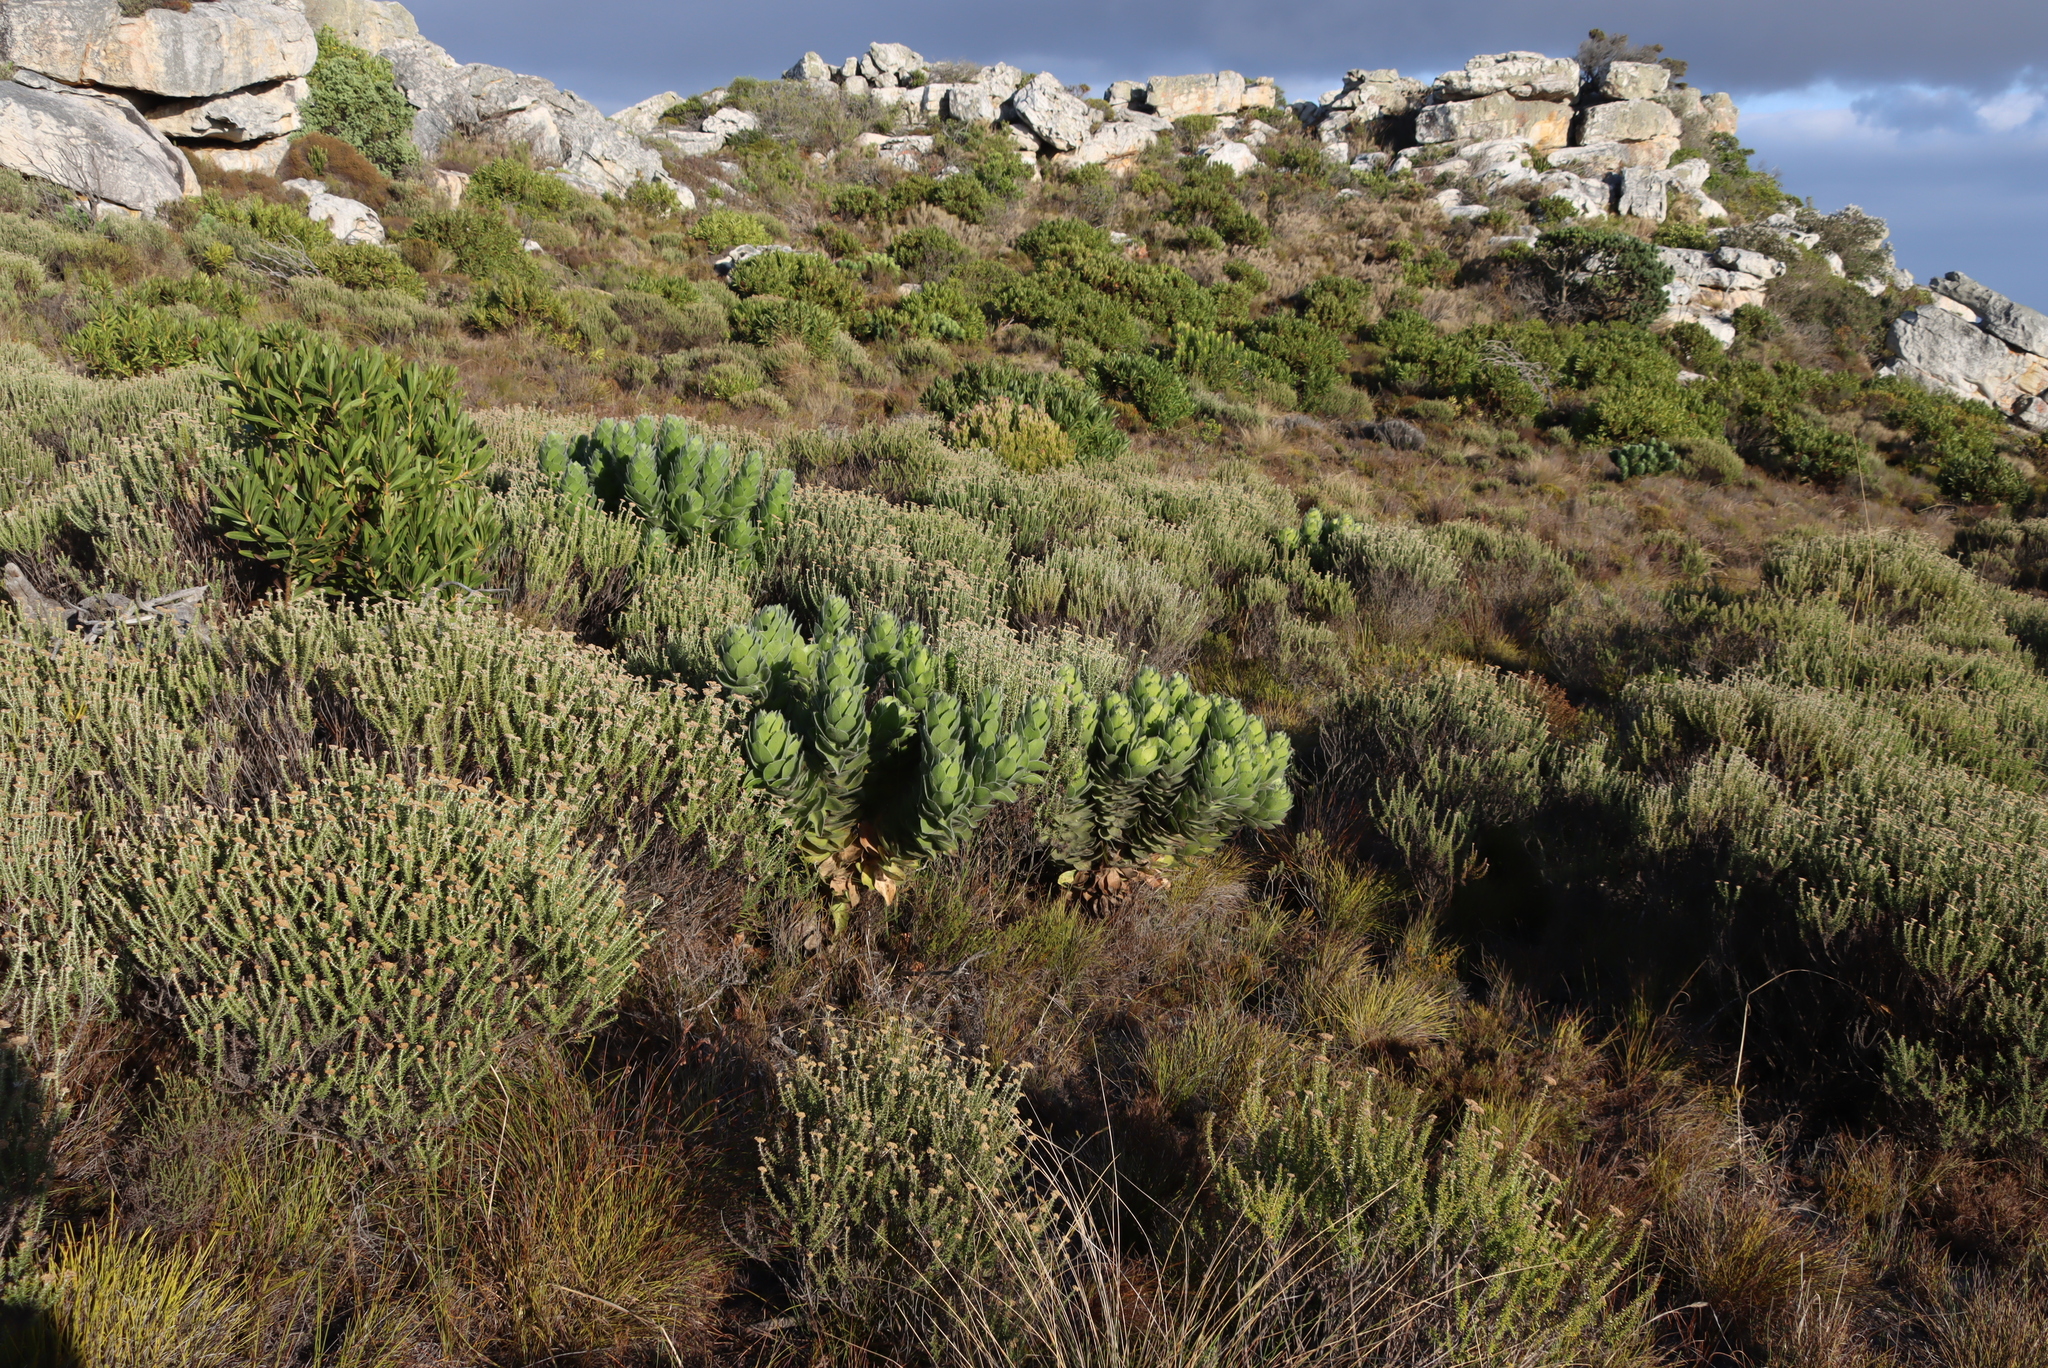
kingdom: Plantae
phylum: Tracheophyta
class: Magnoliopsida
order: Proteales
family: Proteaceae
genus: Leucospermum
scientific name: Leucospermum conocarpodendron
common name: Tree pincushion
